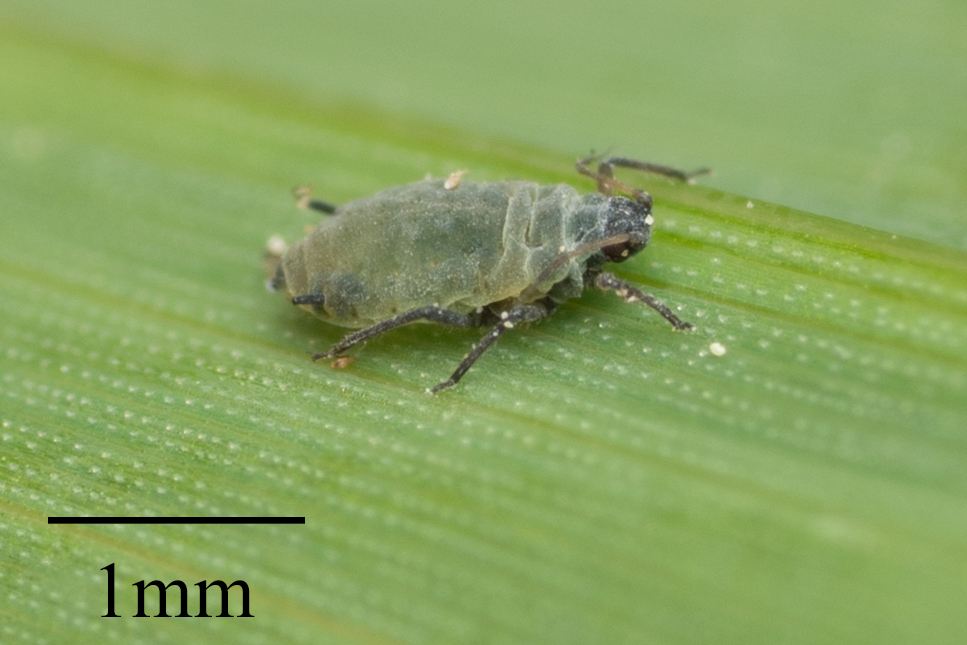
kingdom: Animalia
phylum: Arthropoda
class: Insecta
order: Hemiptera
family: Aphididae
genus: Rhopalosiphum
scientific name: Rhopalosiphum maidis
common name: Corn leaf aphid
